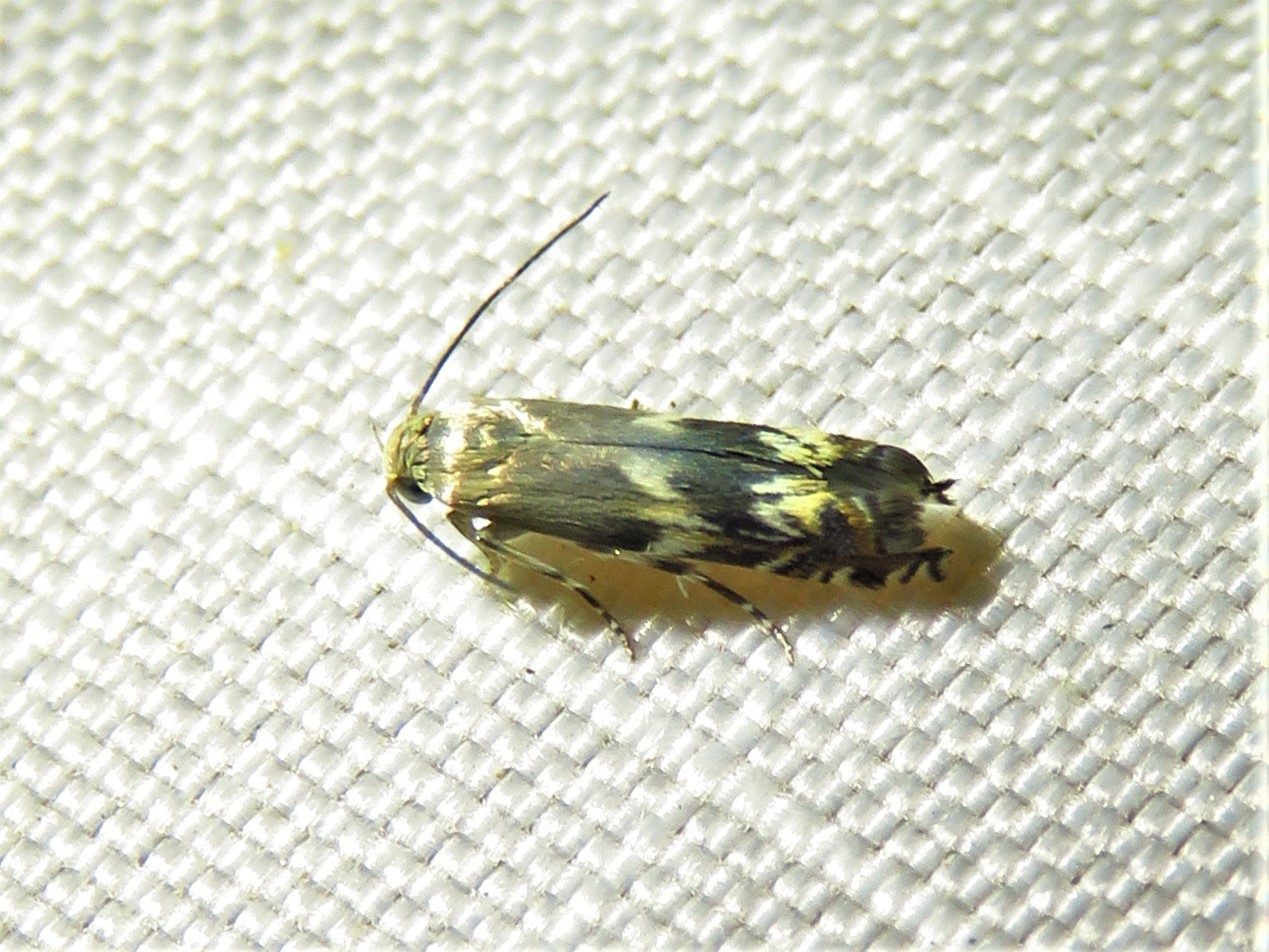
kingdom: Animalia
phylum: Arthropoda
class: Insecta
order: Lepidoptera
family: Gelechiidae
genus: Calliprora
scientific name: Calliprora sexstrigella
